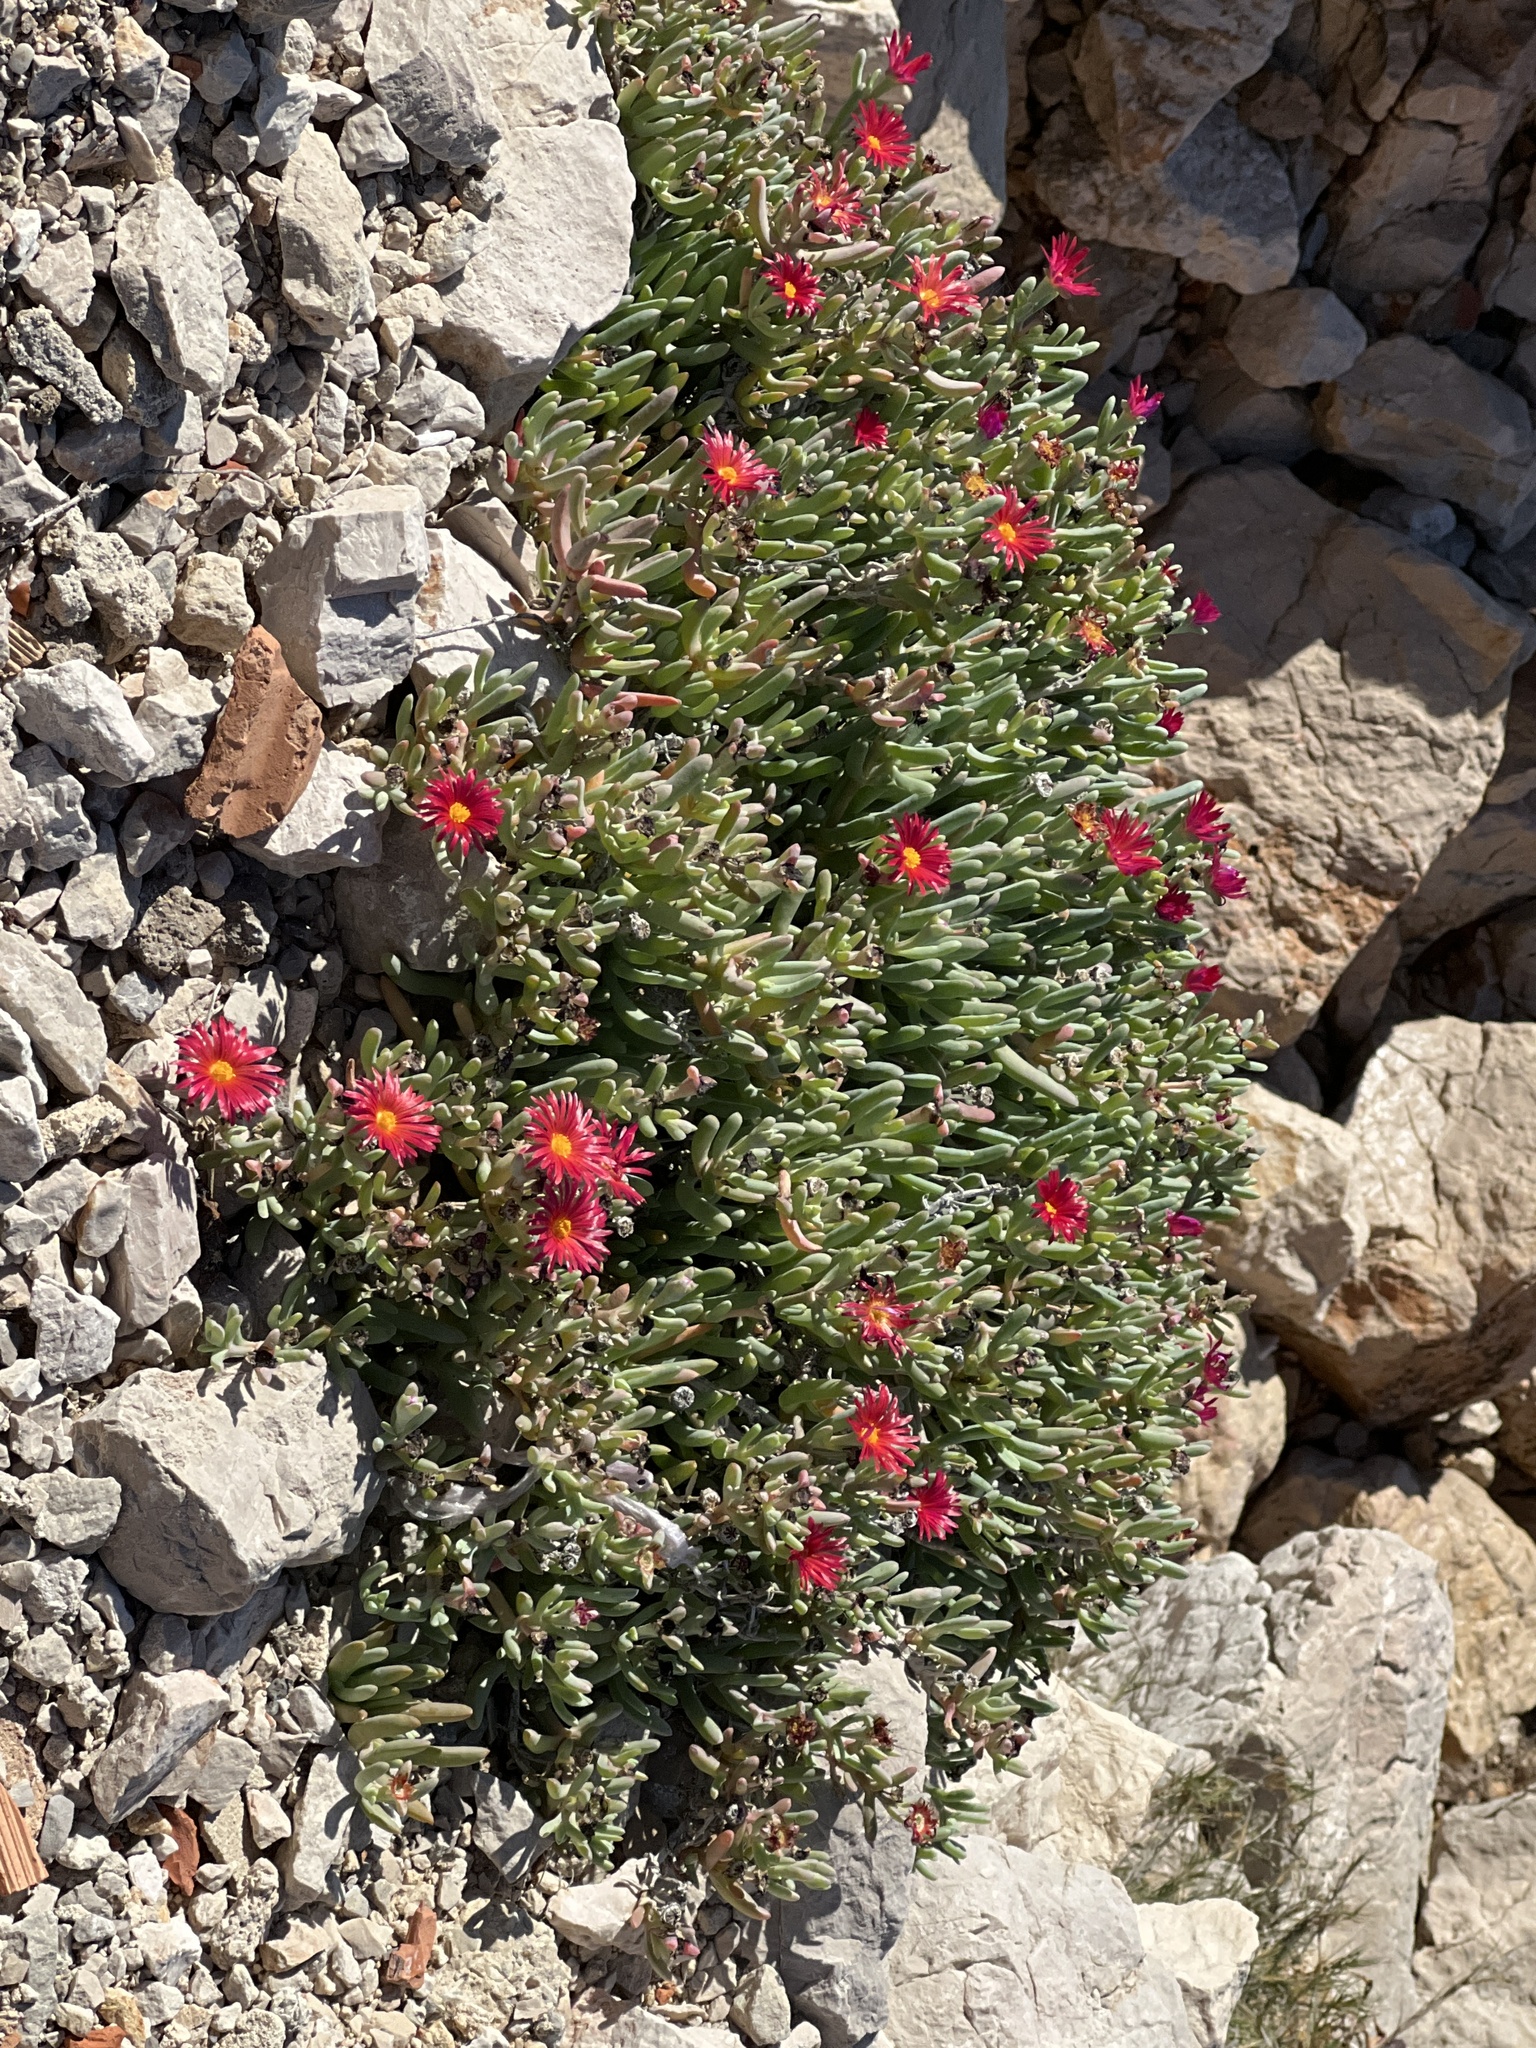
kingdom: Plantae
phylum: Tracheophyta
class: Magnoliopsida
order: Caryophyllales
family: Aizoaceae
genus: Malephora
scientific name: Malephora crocea
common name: Coppery mesemb
